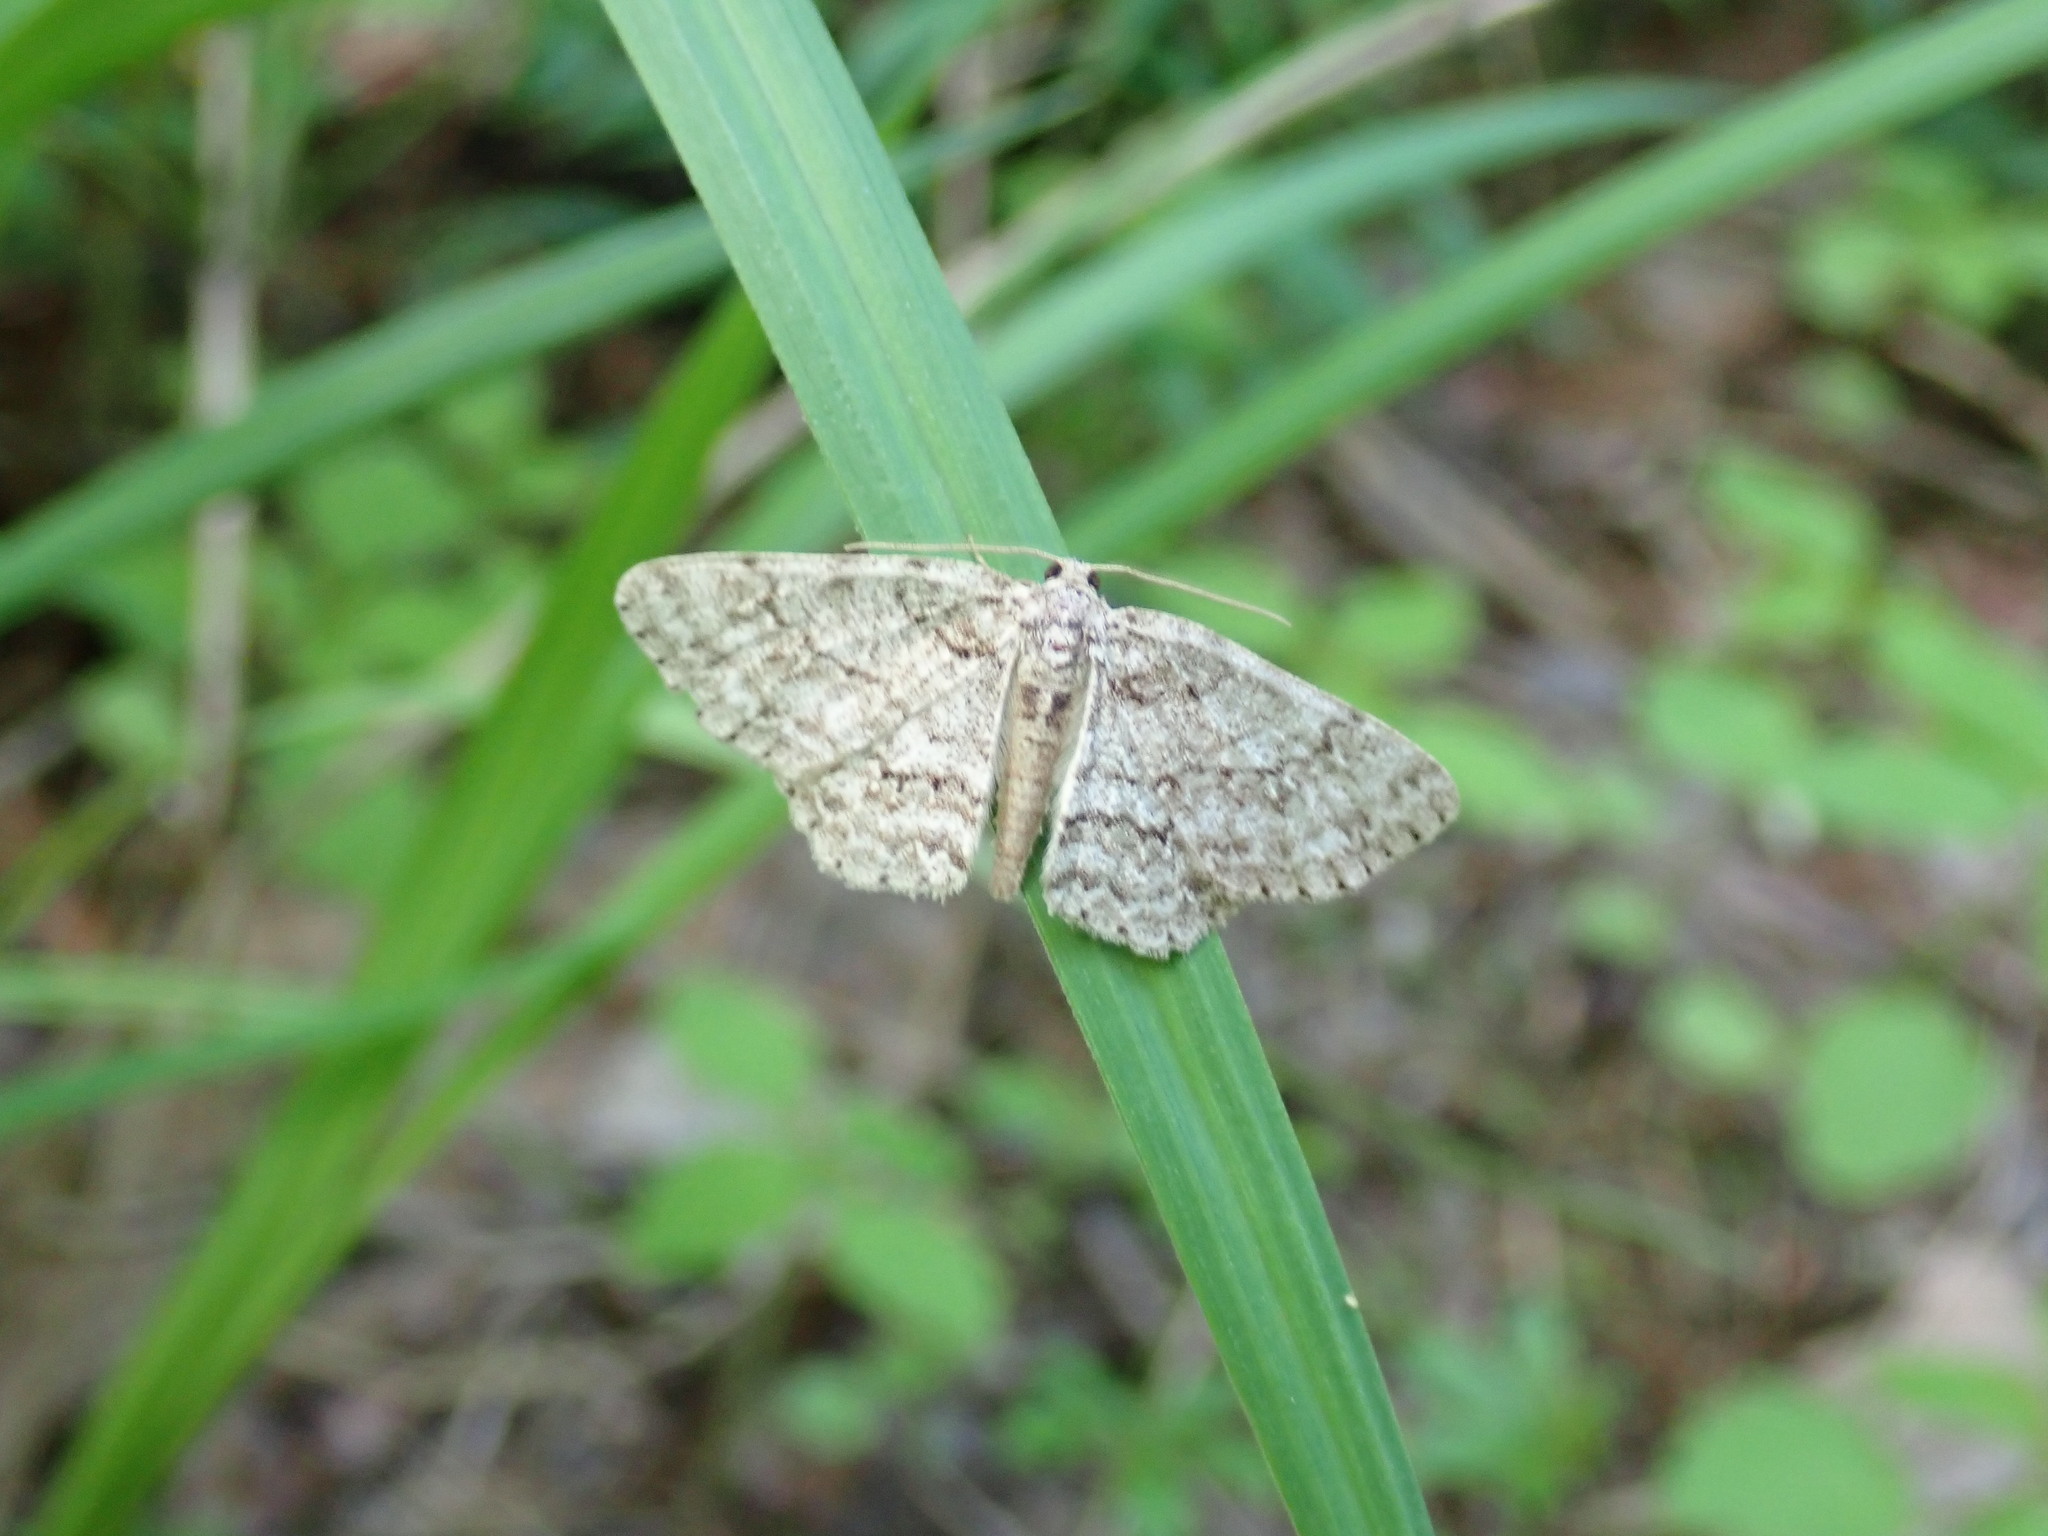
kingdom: Animalia
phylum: Arthropoda
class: Insecta
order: Lepidoptera
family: Geometridae
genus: Ectropis
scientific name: Ectropis crepuscularia
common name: Engrailed
